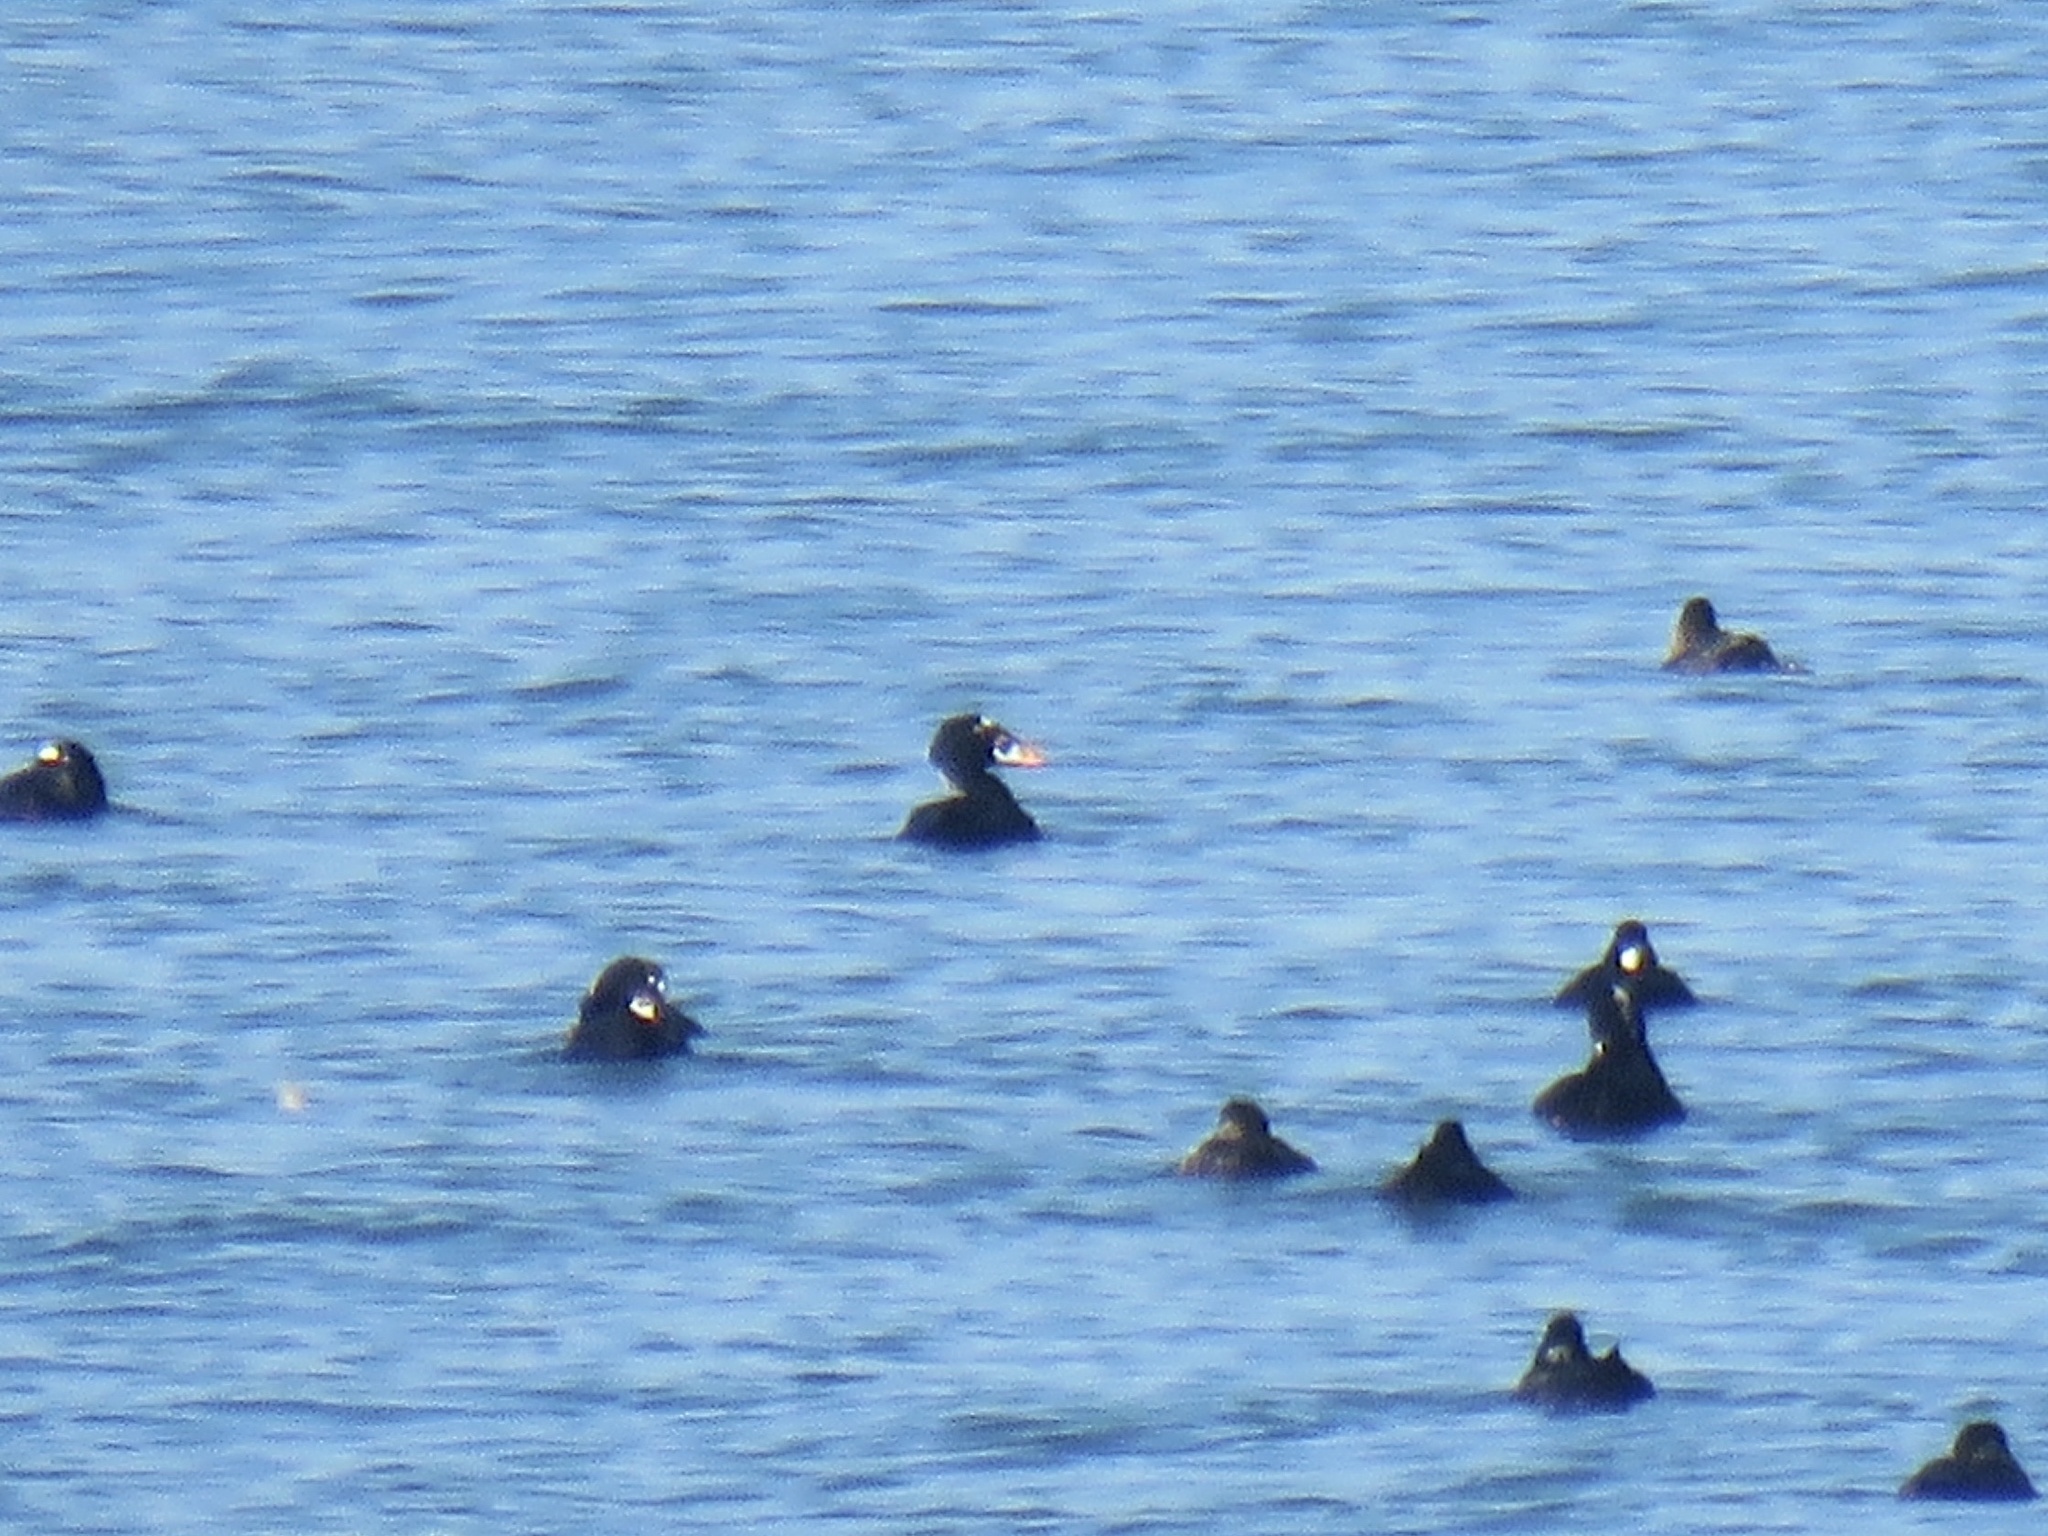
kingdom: Animalia
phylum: Chordata
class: Aves
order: Anseriformes
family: Anatidae
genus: Melanitta
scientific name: Melanitta perspicillata
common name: Surf scoter
